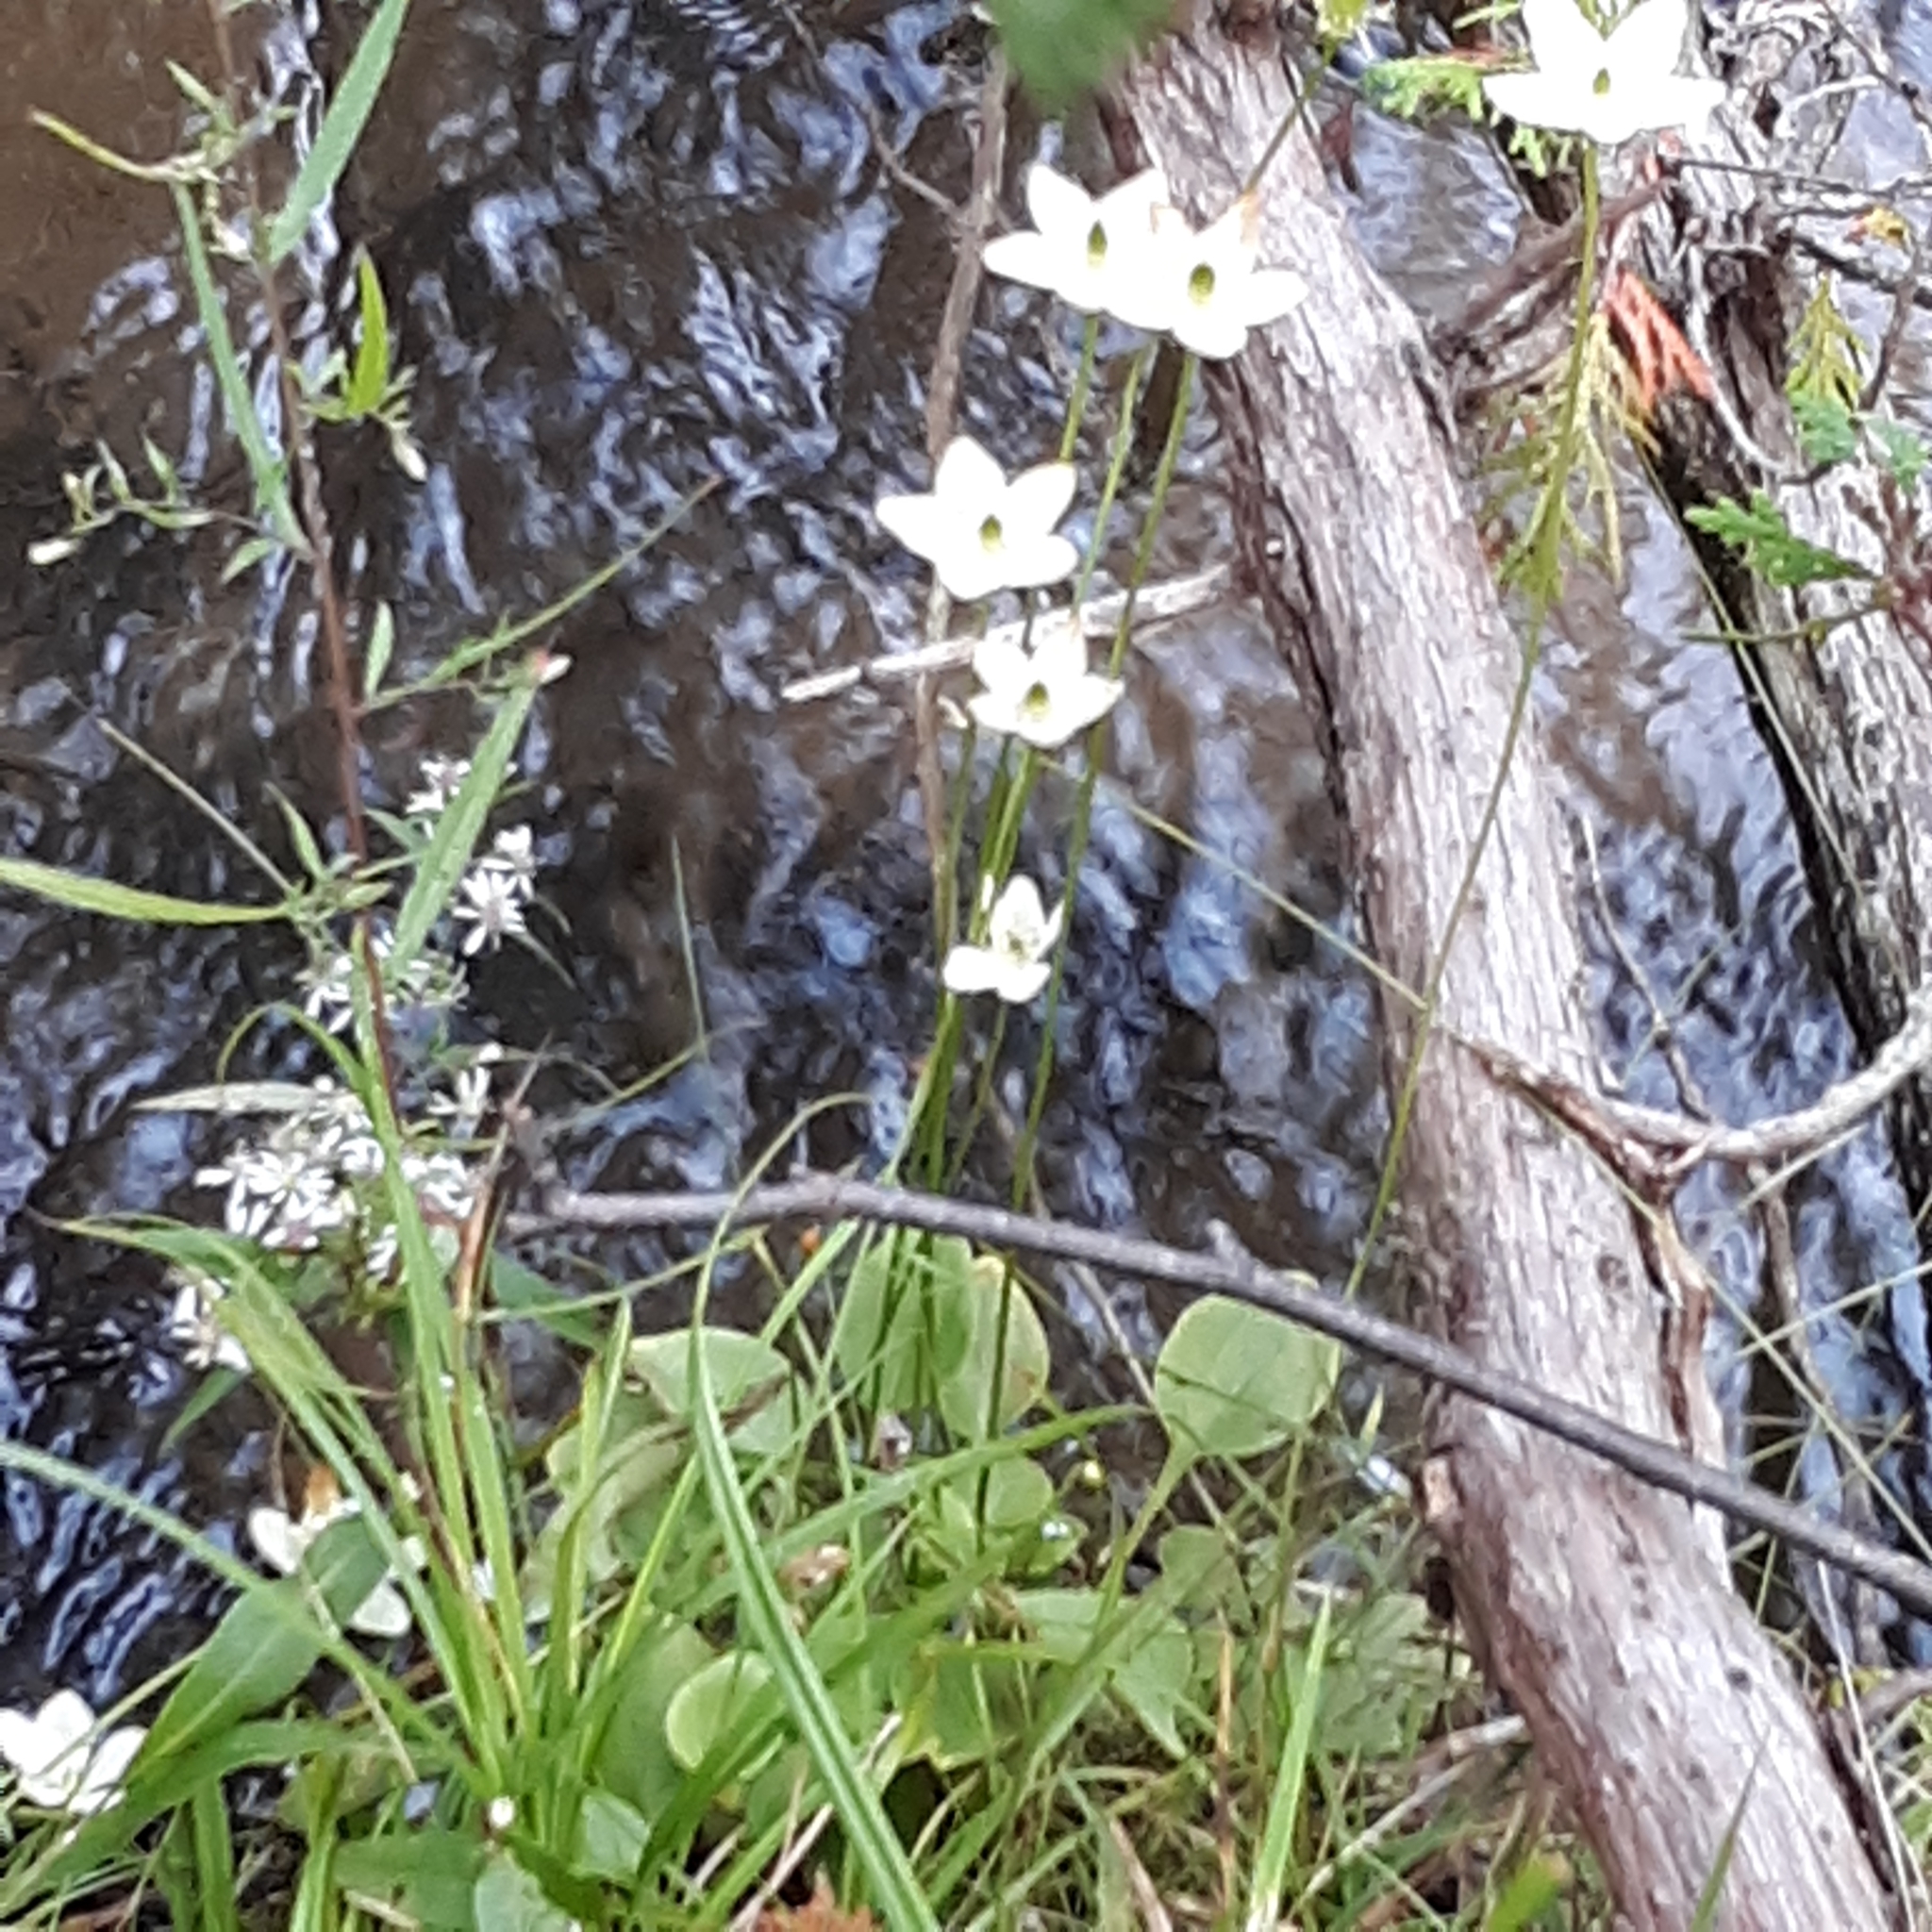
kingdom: Plantae
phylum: Tracheophyta
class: Magnoliopsida
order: Celastrales
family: Parnassiaceae
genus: Parnassia
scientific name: Parnassia glauca
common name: American grass-of-parnassus
